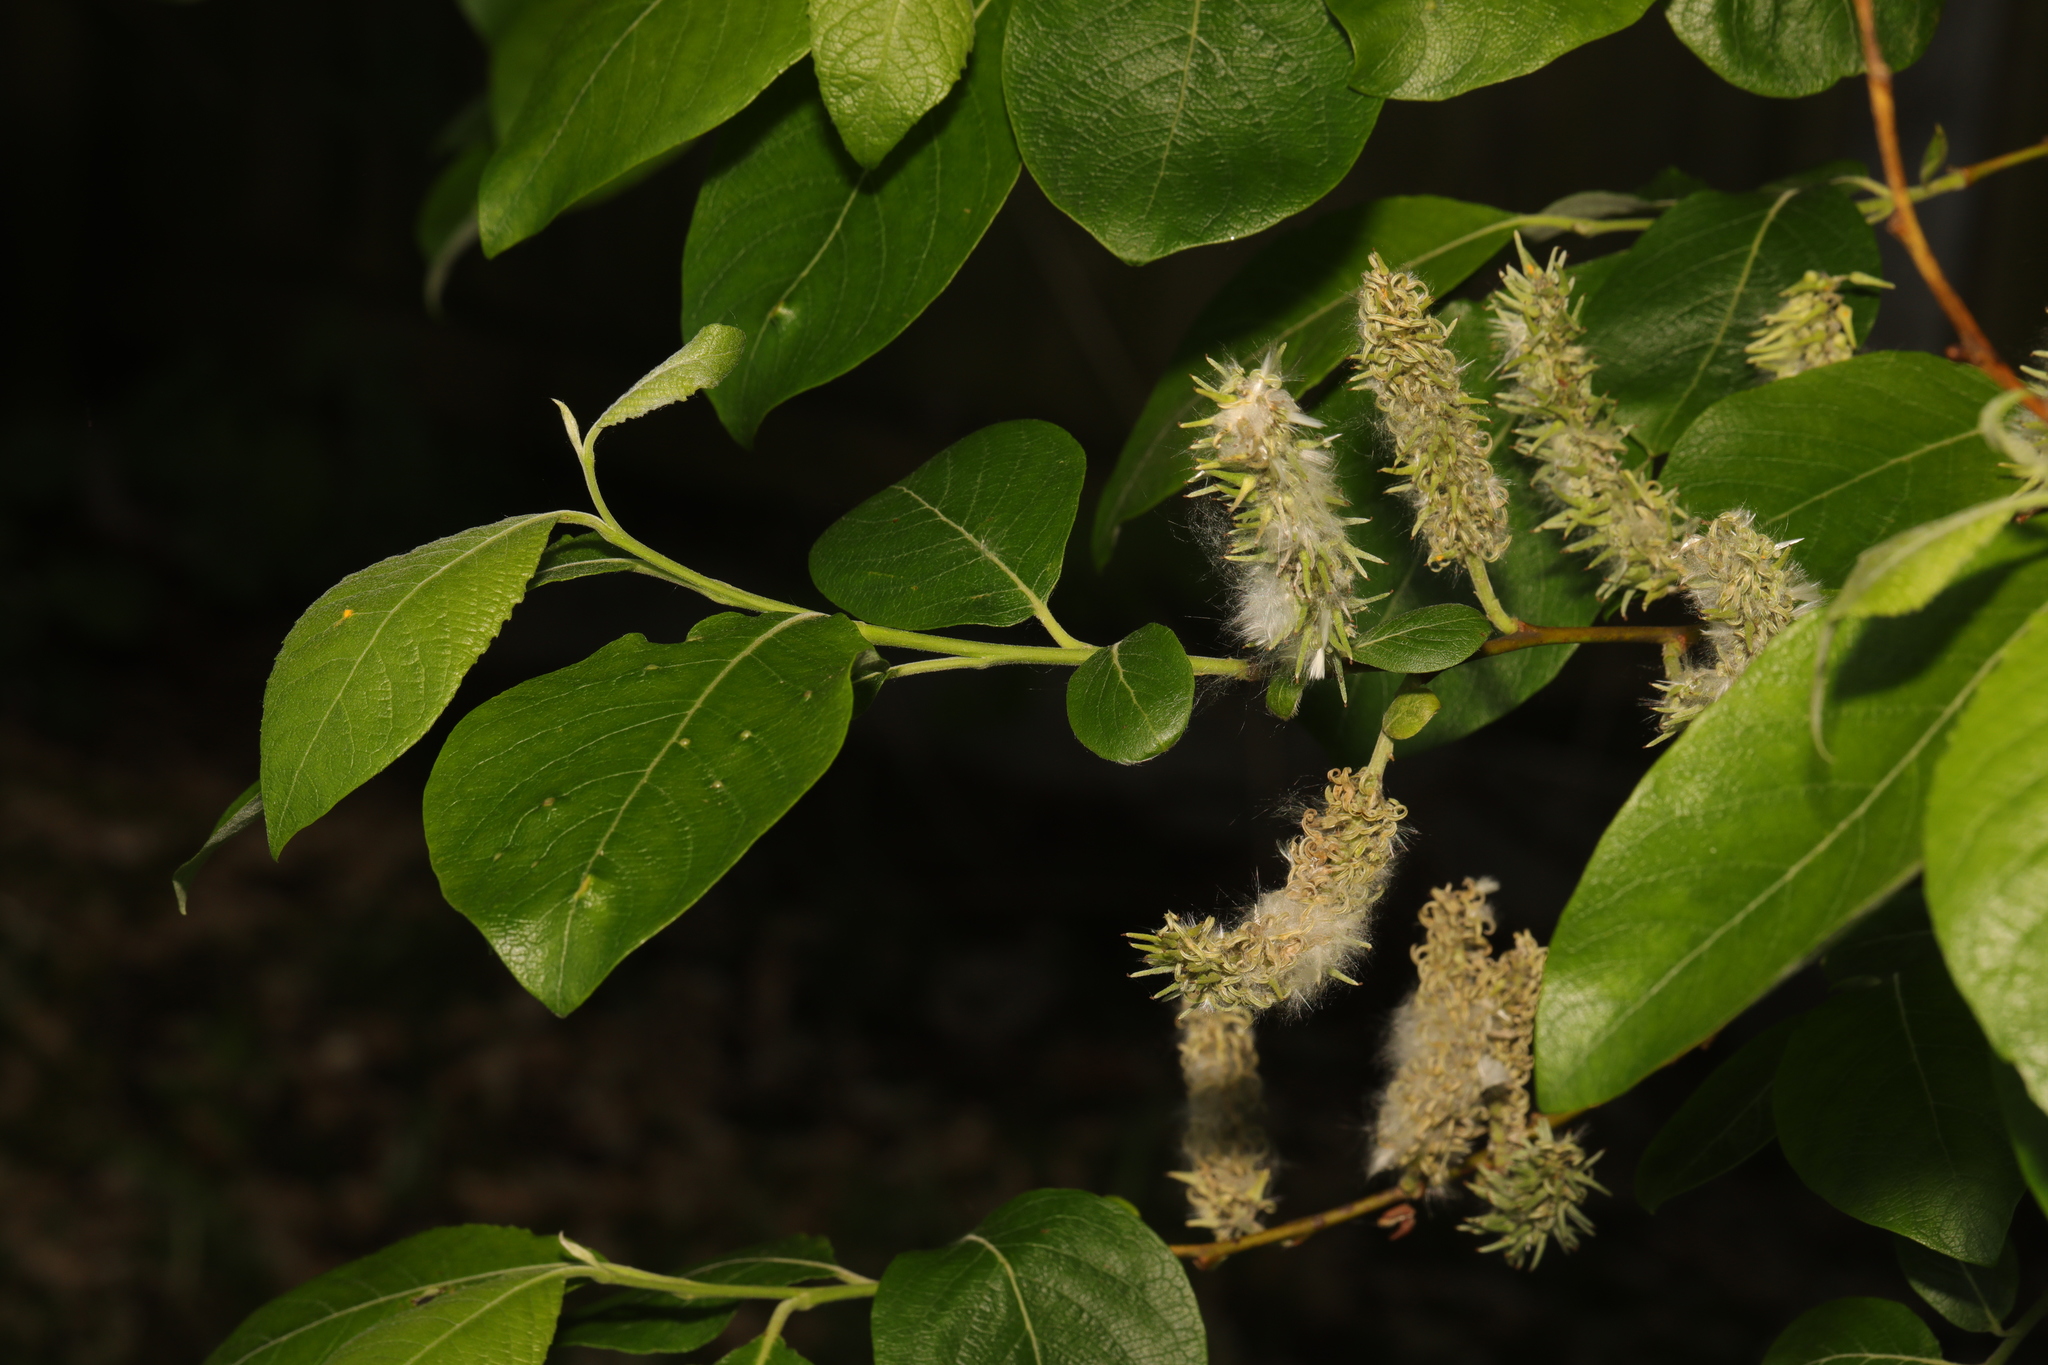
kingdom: Plantae
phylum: Tracheophyta
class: Magnoliopsida
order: Malpighiales
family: Salicaceae
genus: Salix
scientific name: Salix caprea
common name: Goat willow
